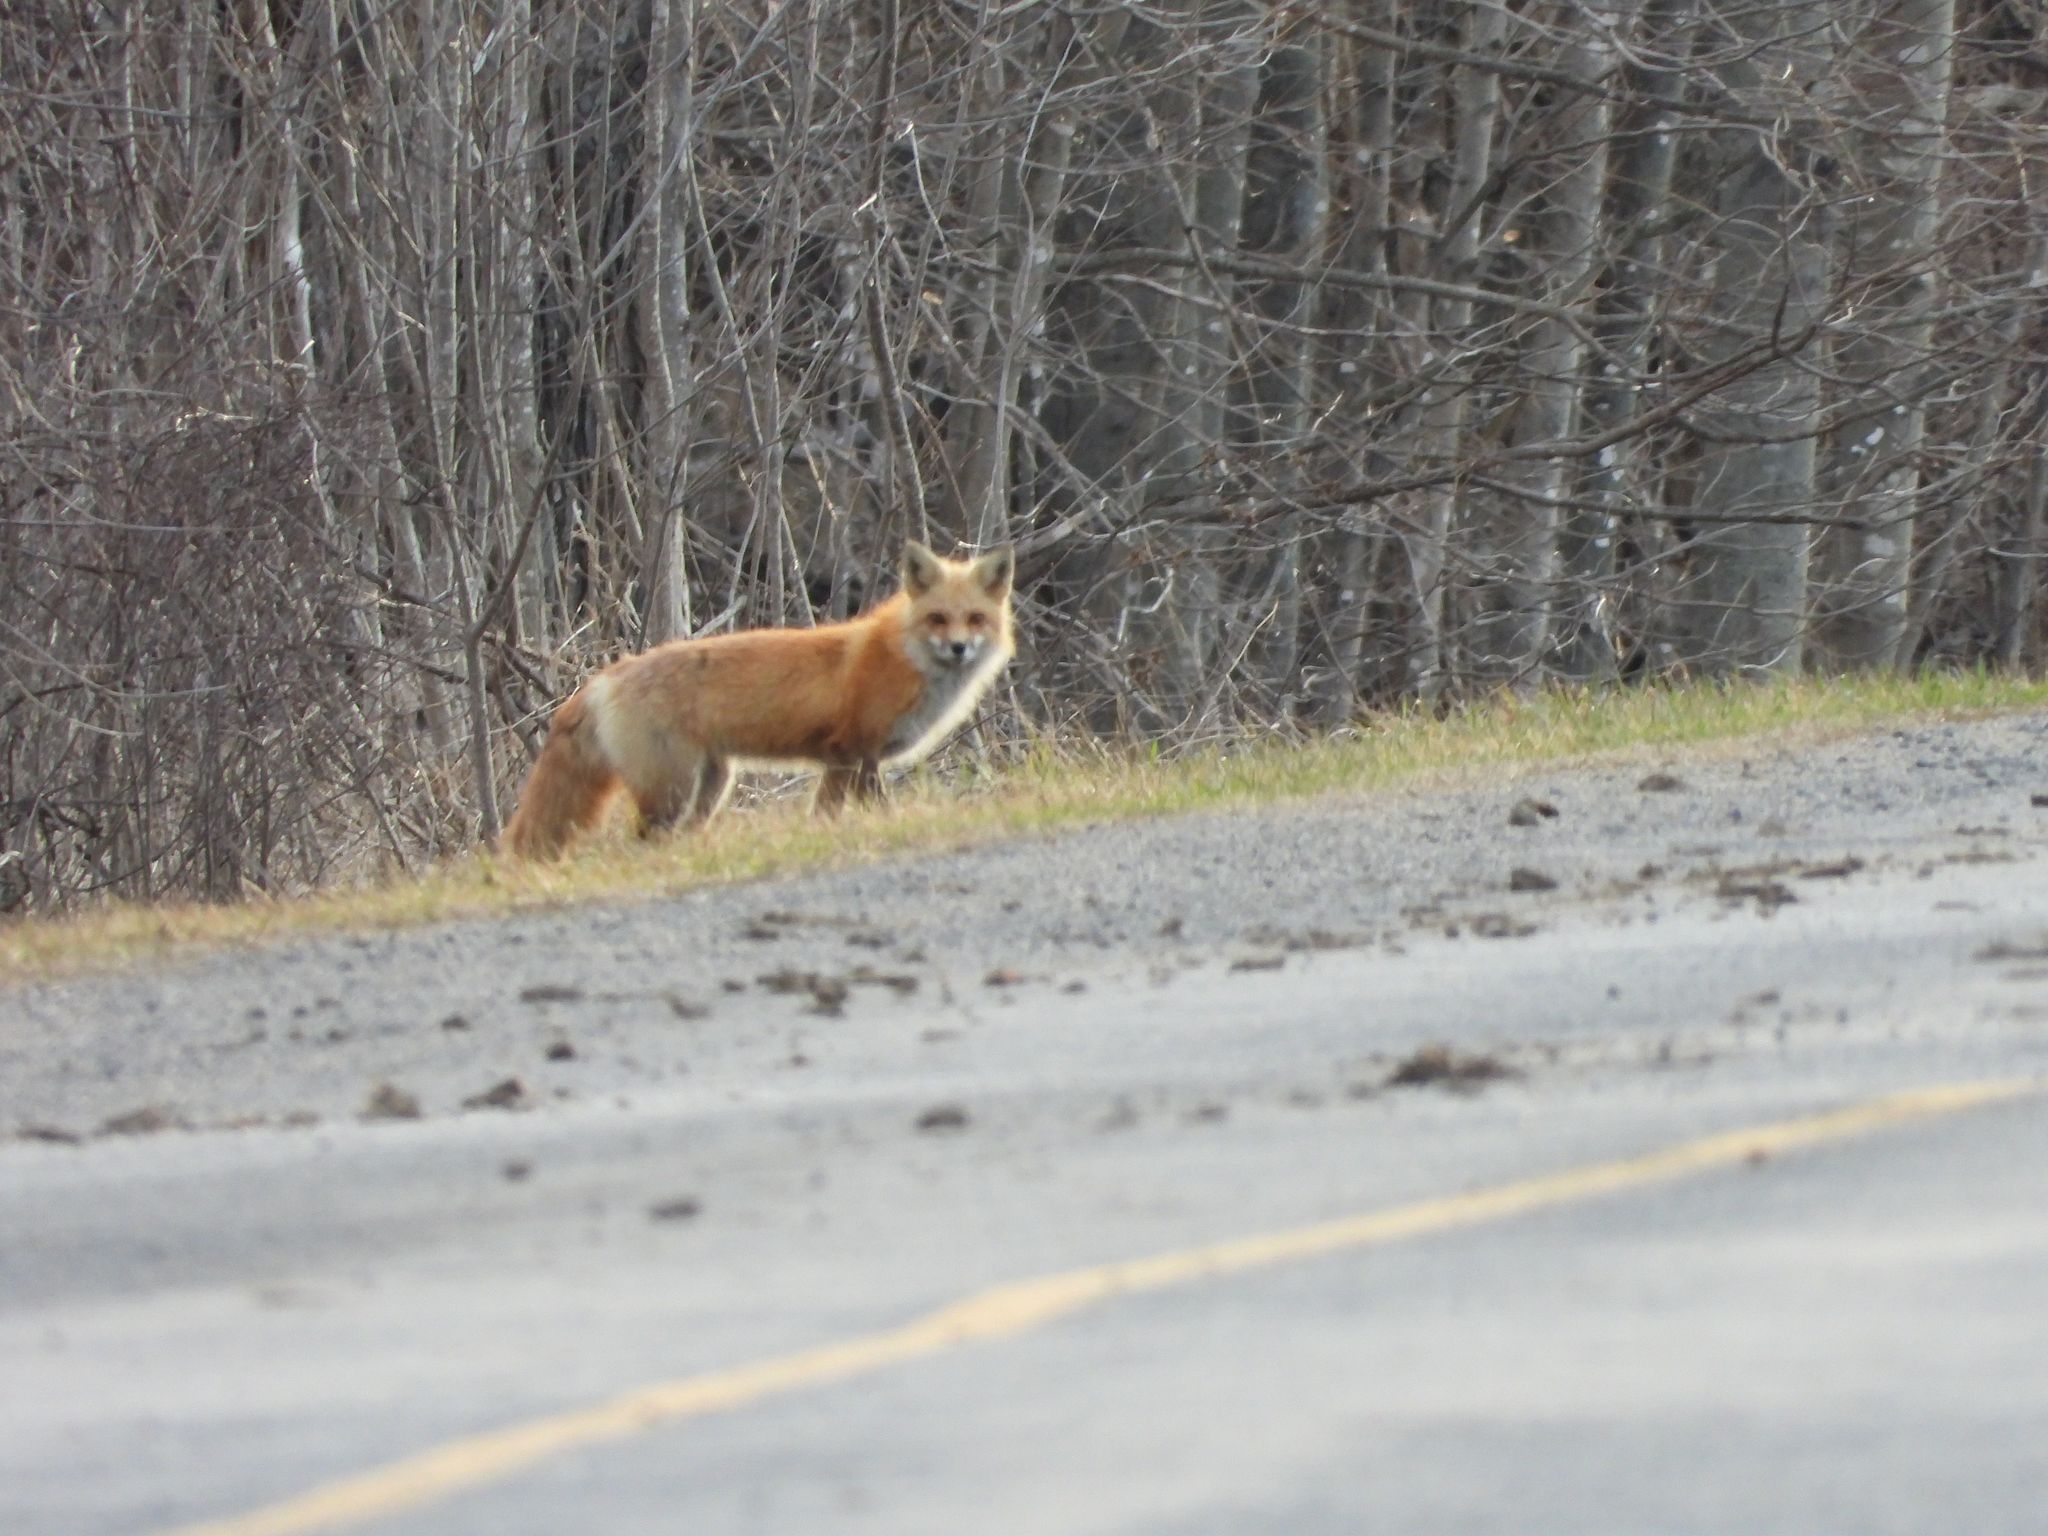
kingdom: Animalia
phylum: Chordata
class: Mammalia
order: Carnivora
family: Canidae
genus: Vulpes
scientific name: Vulpes vulpes
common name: Red fox
